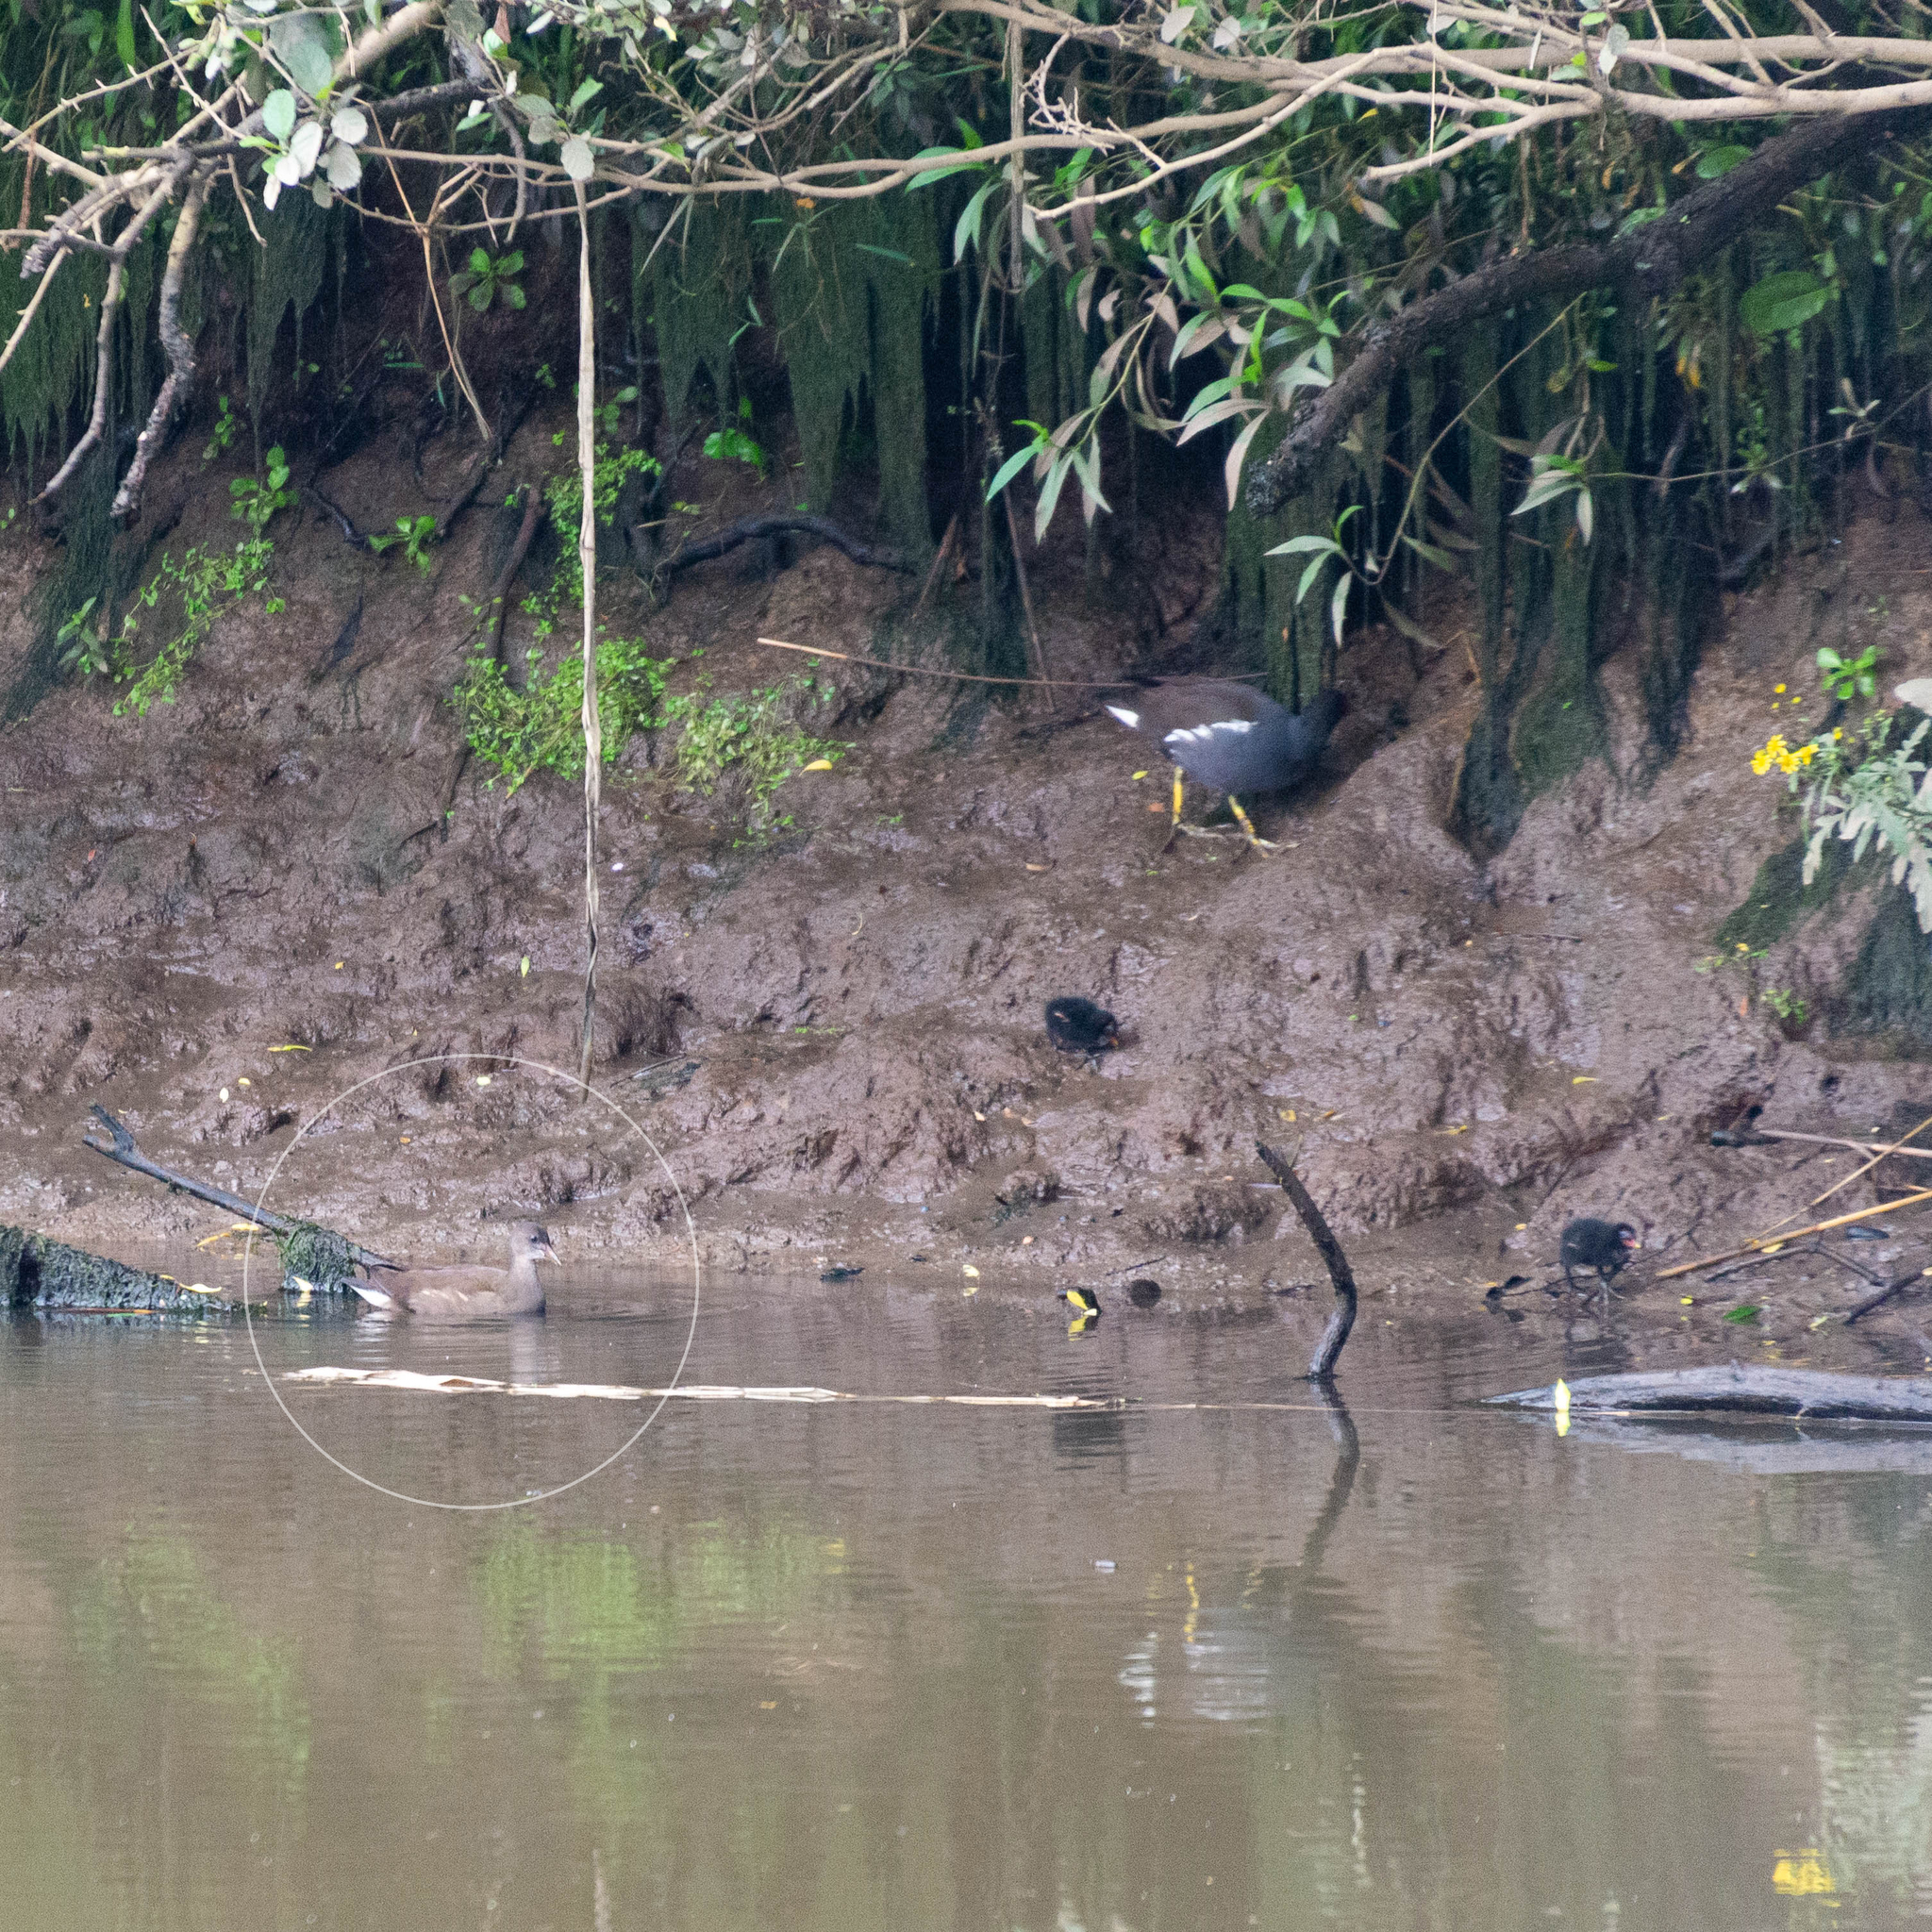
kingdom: Animalia
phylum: Chordata
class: Aves
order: Gruiformes
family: Rallidae
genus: Gallinula
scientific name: Gallinula chloropus
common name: Common moorhen
